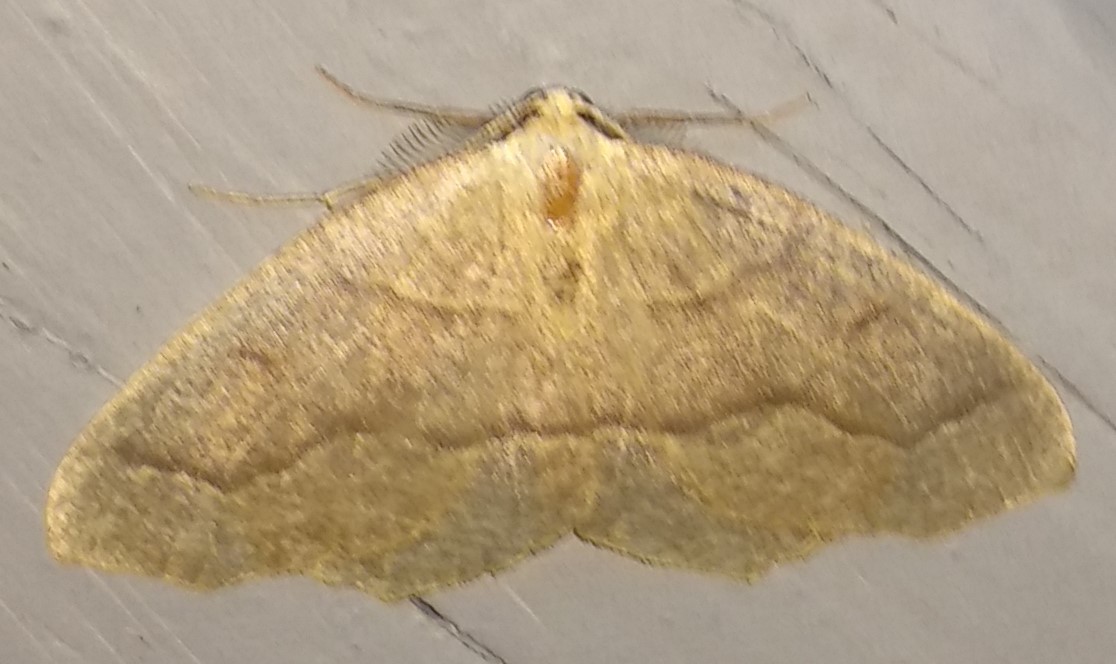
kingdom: Animalia
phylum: Arthropoda
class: Insecta
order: Lepidoptera
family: Geometridae
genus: Lambdina
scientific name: Lambdina fiscellaria
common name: Hemlock looper
